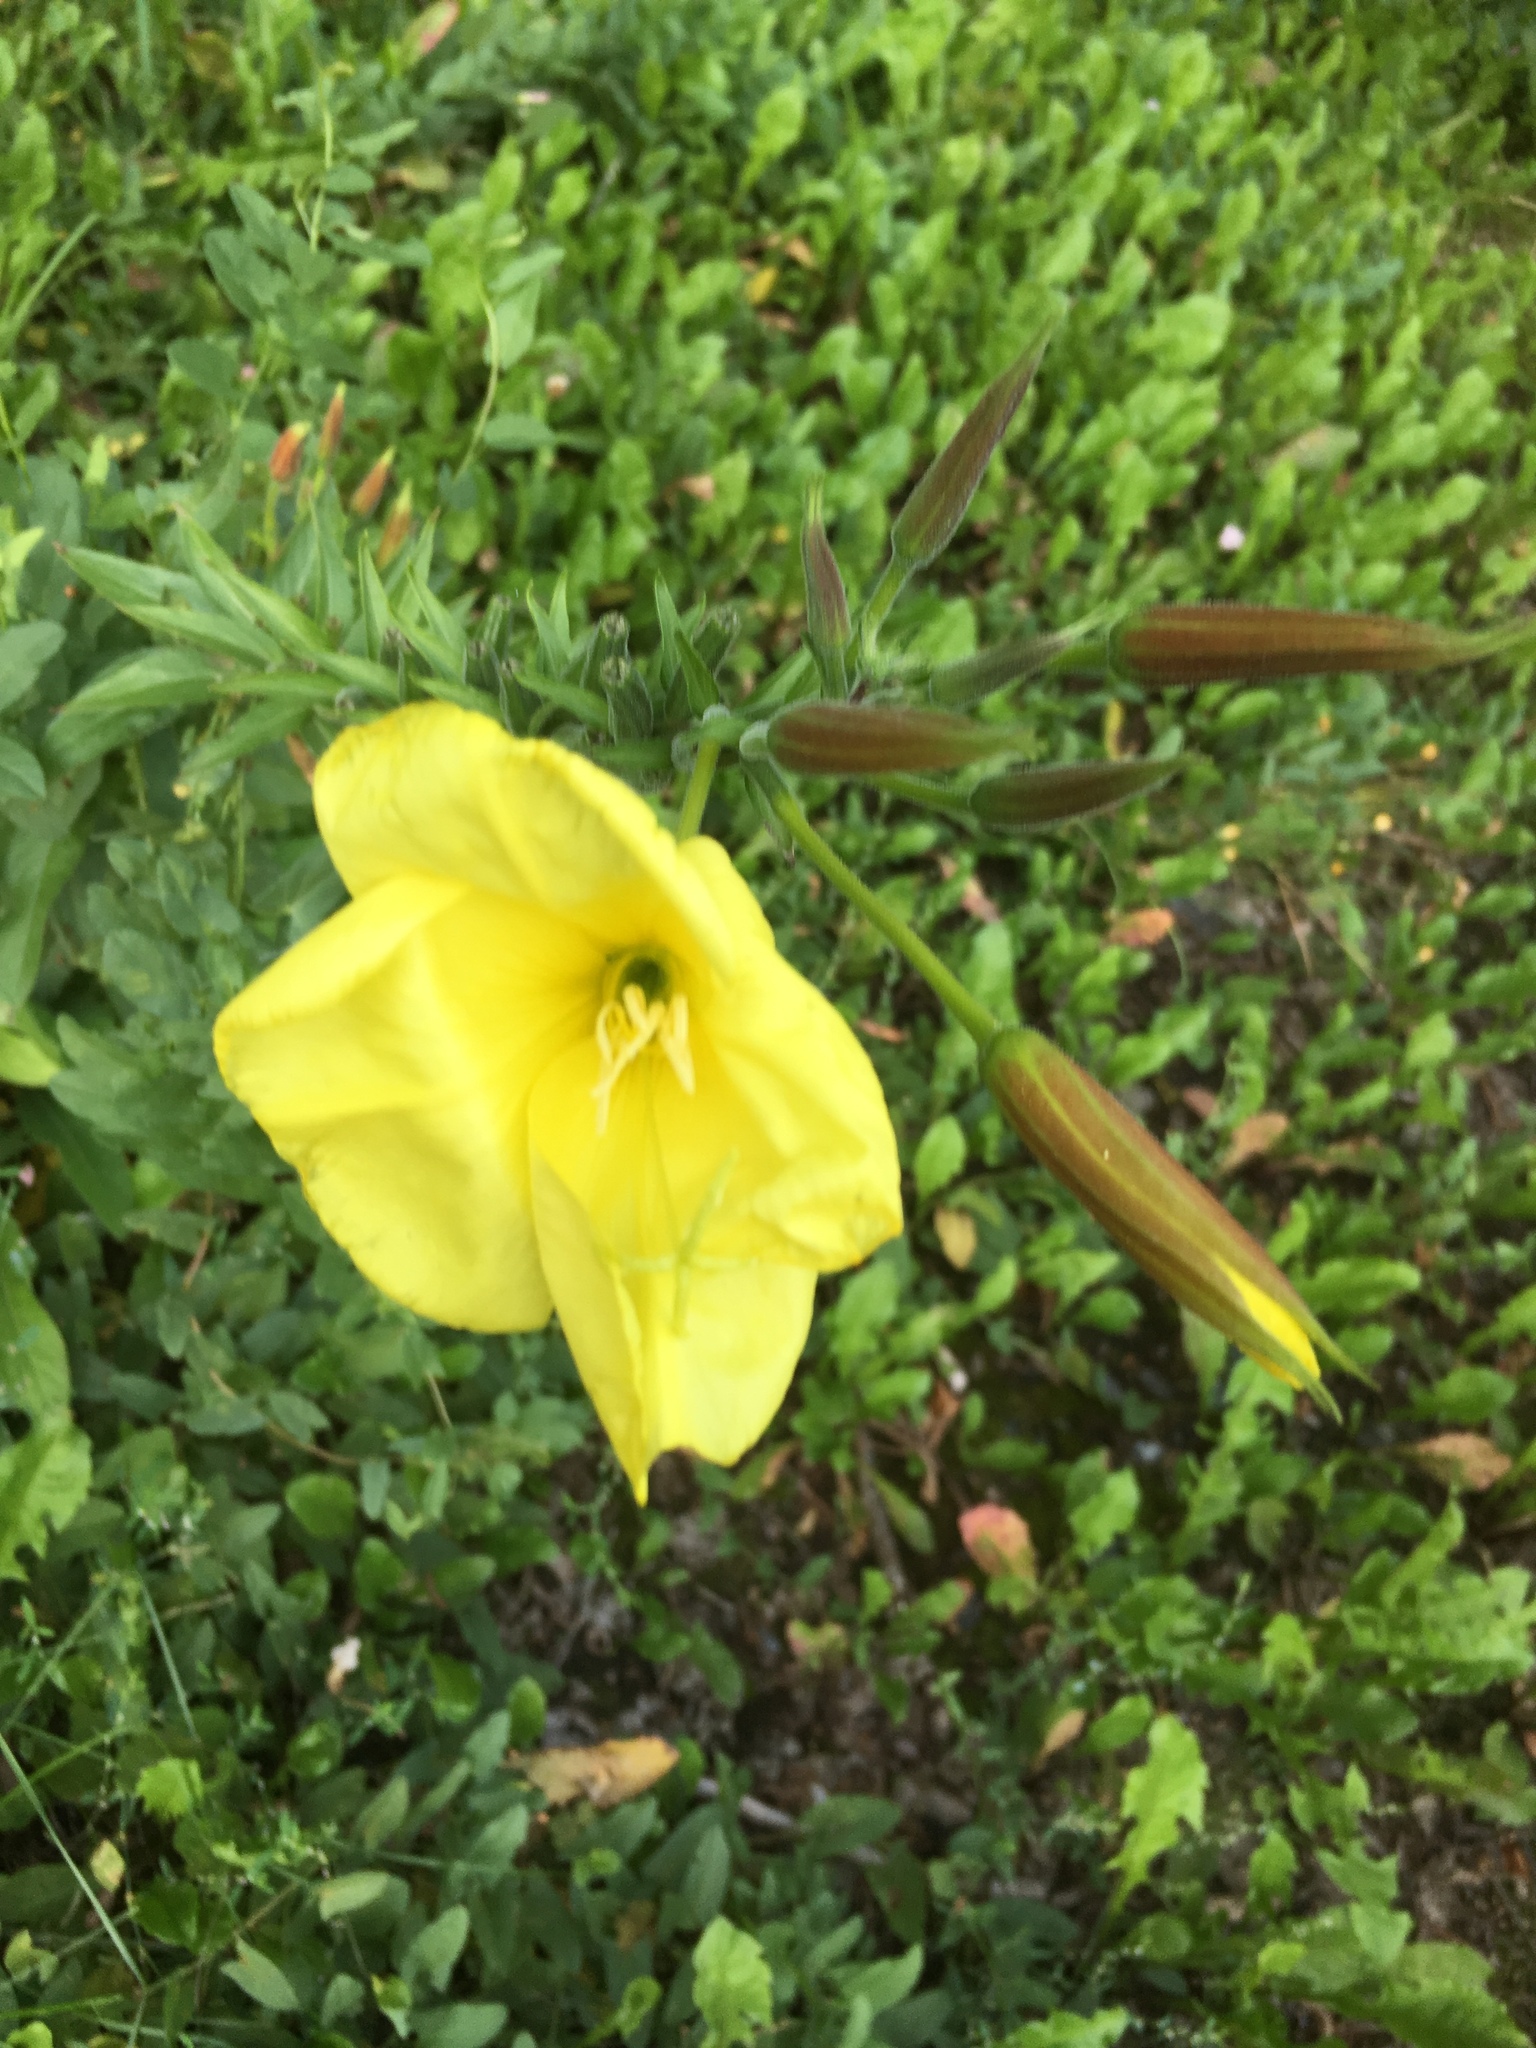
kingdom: Plantae
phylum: Tracheophyta
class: Magnoliopsida
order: Myrtales
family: Onagraceae
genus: Oenothera
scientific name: Oenothera glazioviana
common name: Large-flowered evening-primrose
